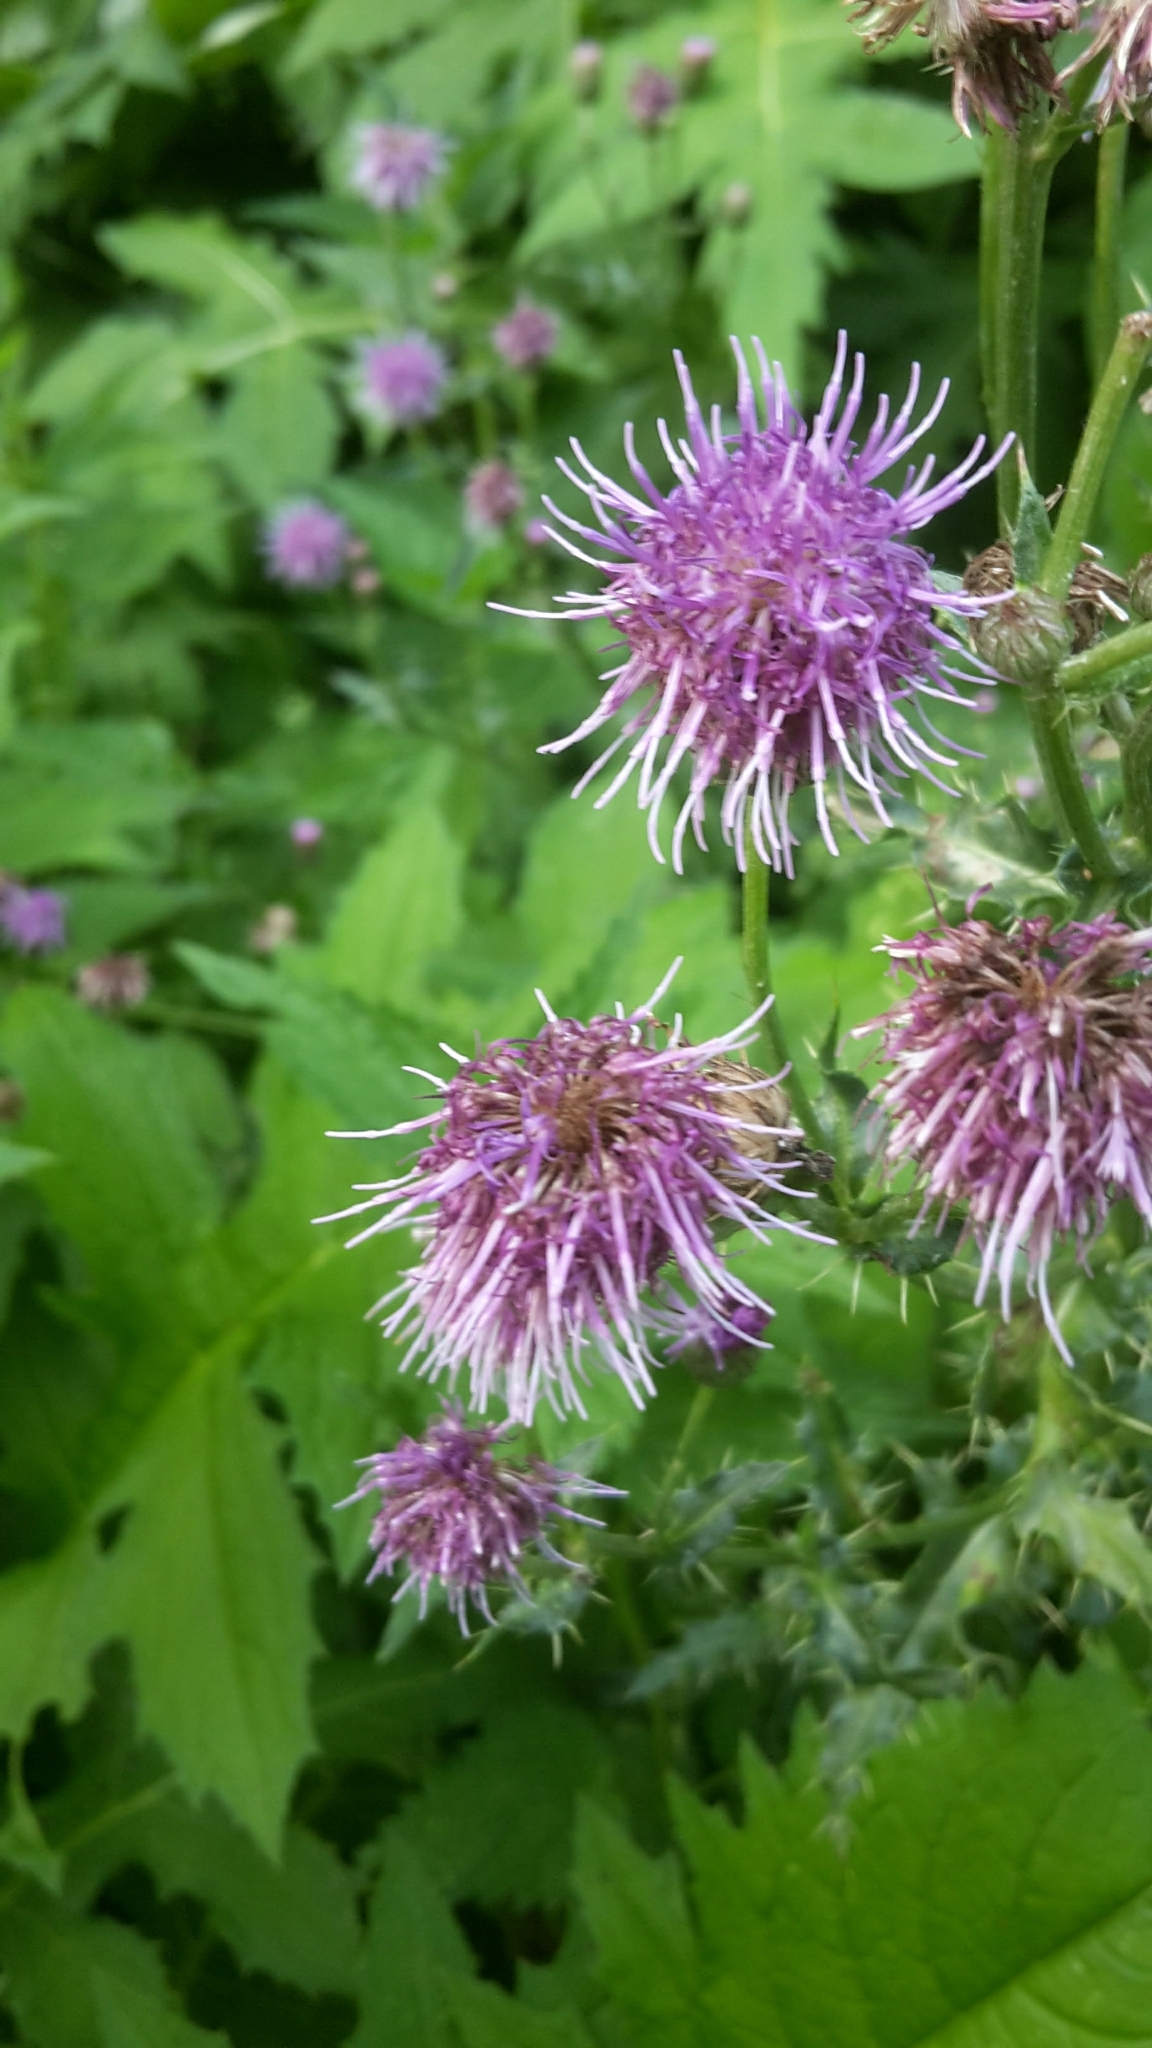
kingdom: Plantae
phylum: Tracheophyta
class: Magnoliopsida
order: Asterales
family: Asteraceae
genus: Cirsium
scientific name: Cirsium arvense
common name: Creeping thistle
